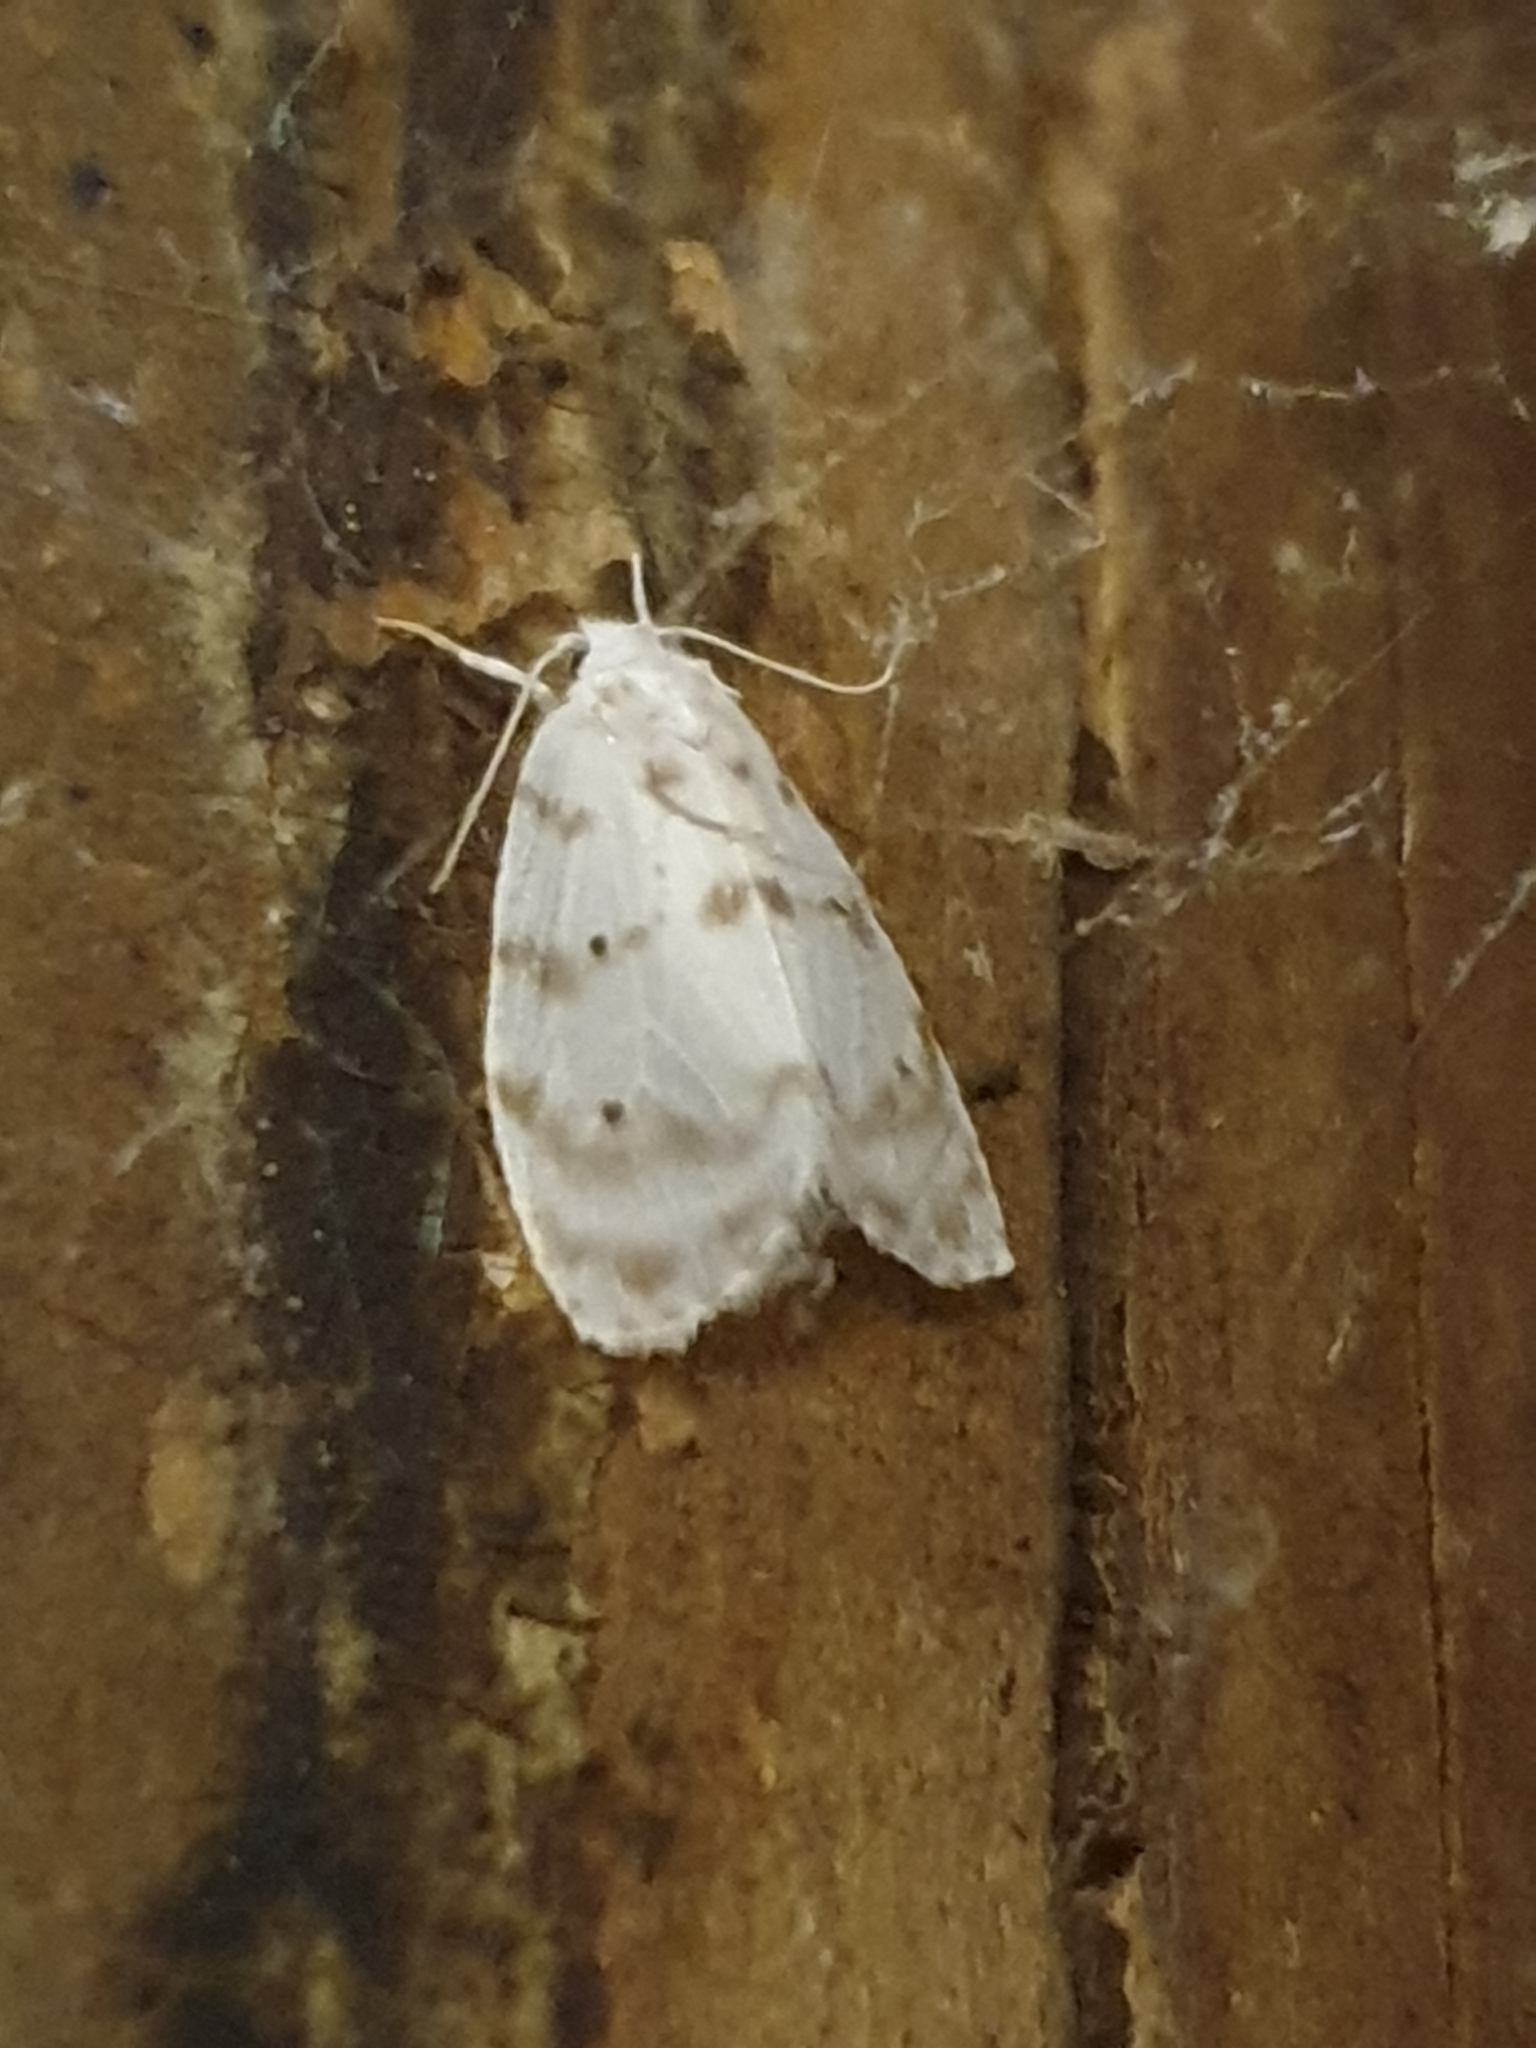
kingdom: Animalia
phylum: Arthropoda
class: Insecta
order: Lepidoptera
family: Erebidae
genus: Schistophleps
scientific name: Schistophleps albida
